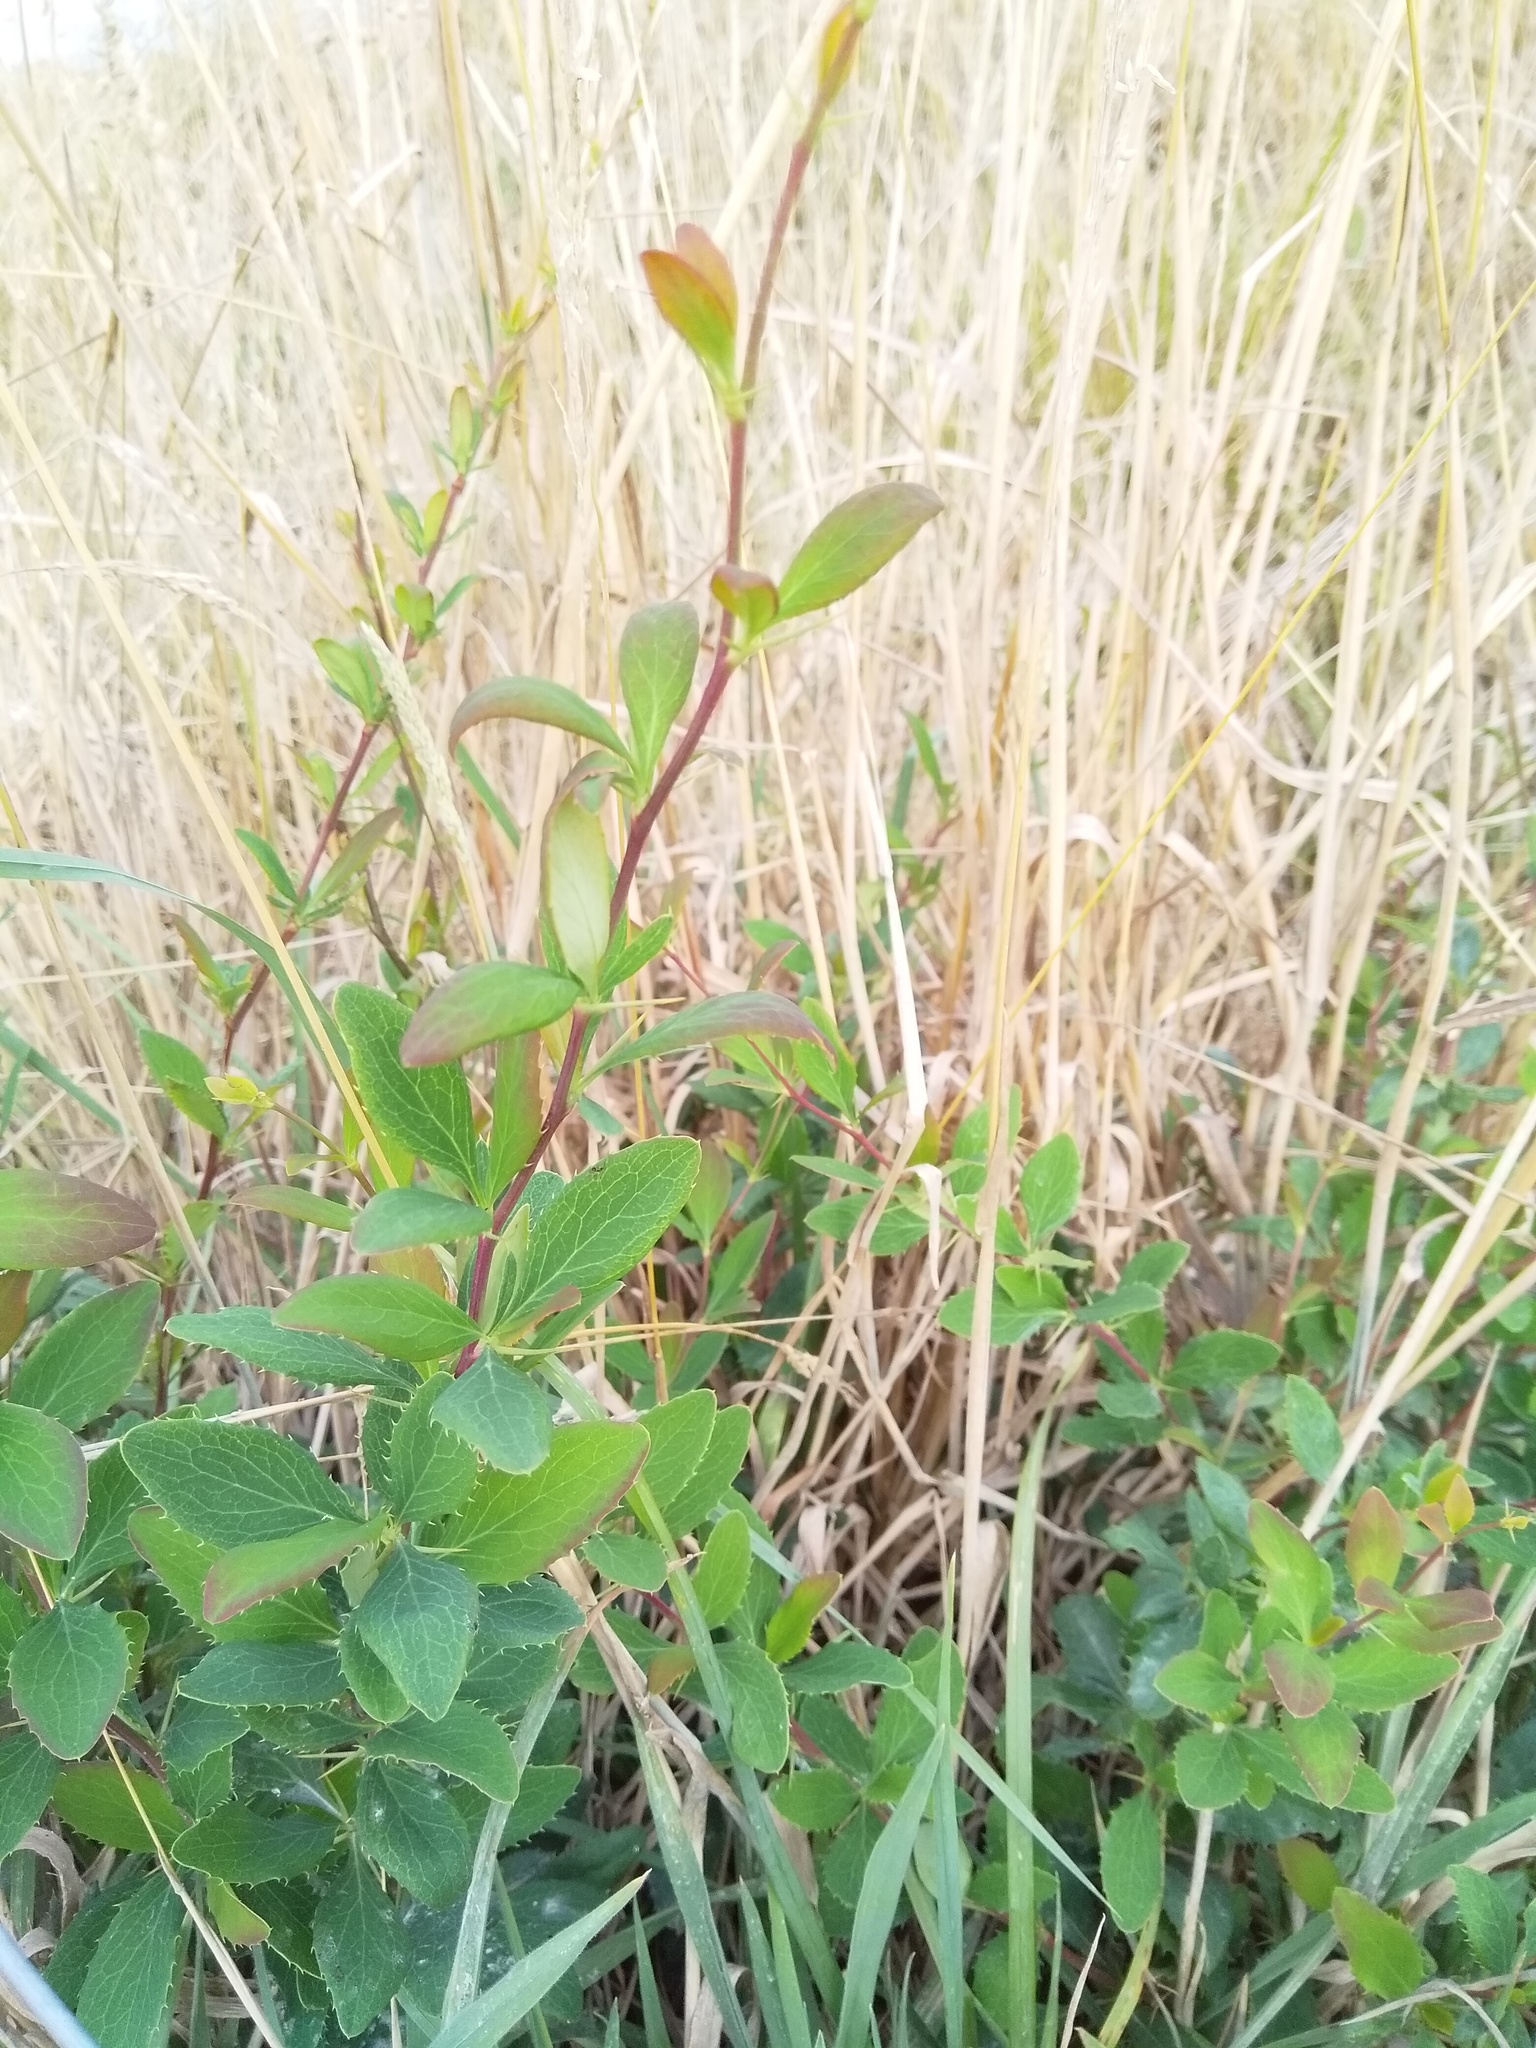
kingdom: Plantae
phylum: Tracheophyta
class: Magnoliopsida
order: Ranunculales
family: Berberidaceae
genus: Berberis
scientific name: Berberis glaucocarpa
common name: Great barberry
